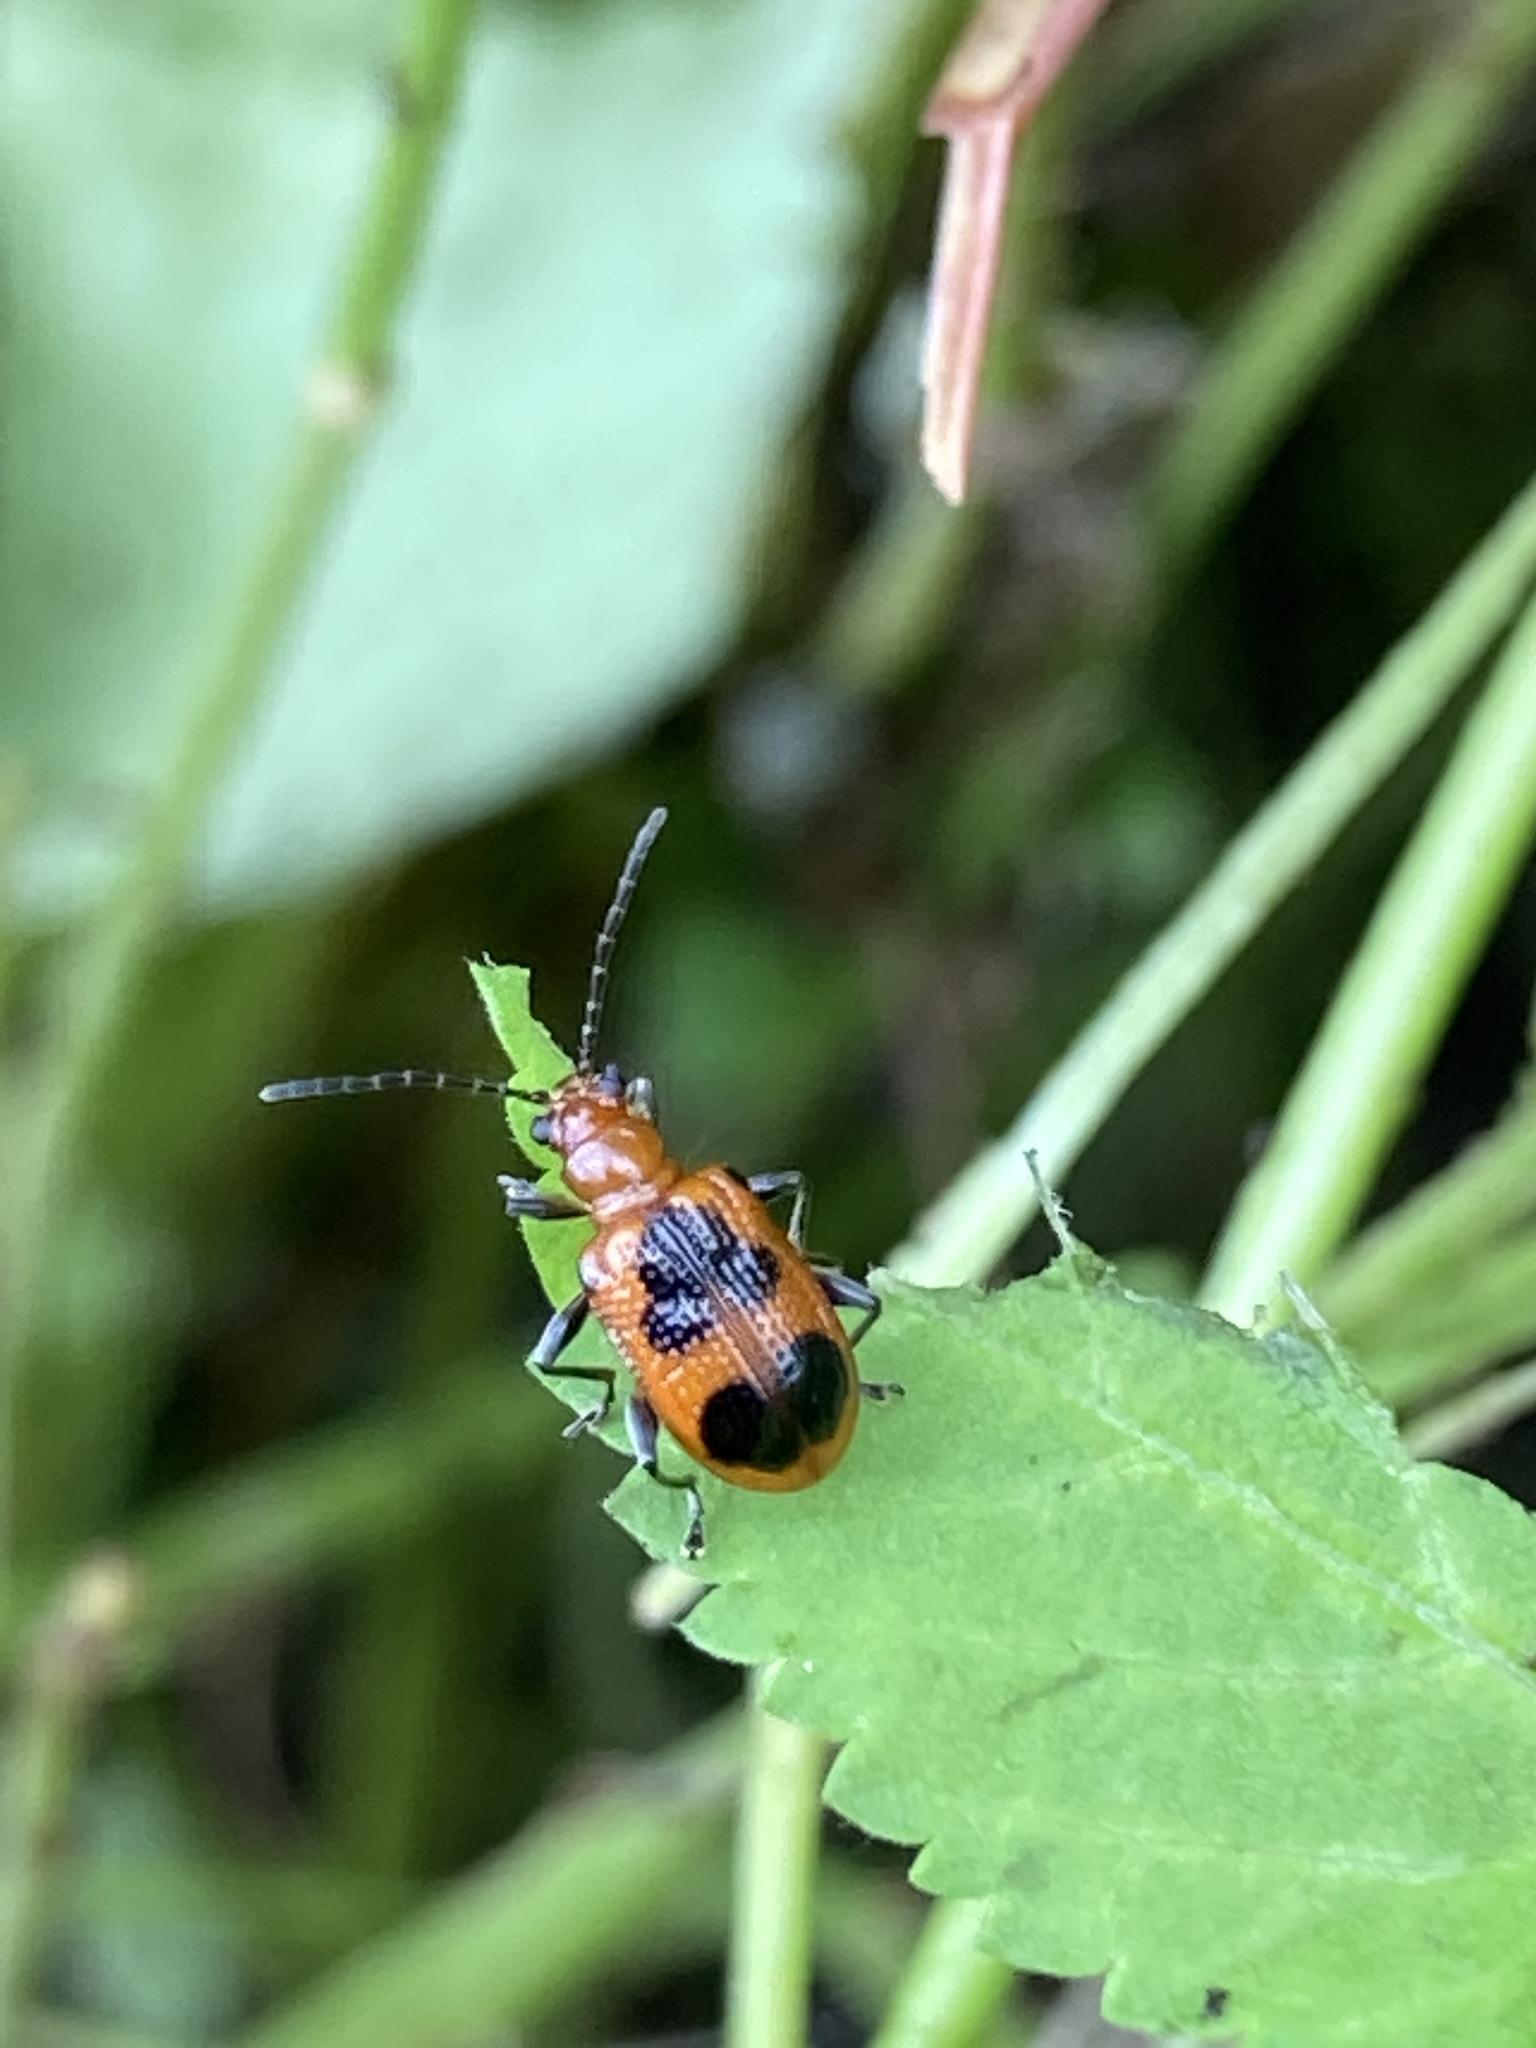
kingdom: Animalia
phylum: Arthropoda
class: Insecta
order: Coleoptera
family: Chrysomelidae
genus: Neolema
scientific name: Neolema cordata
